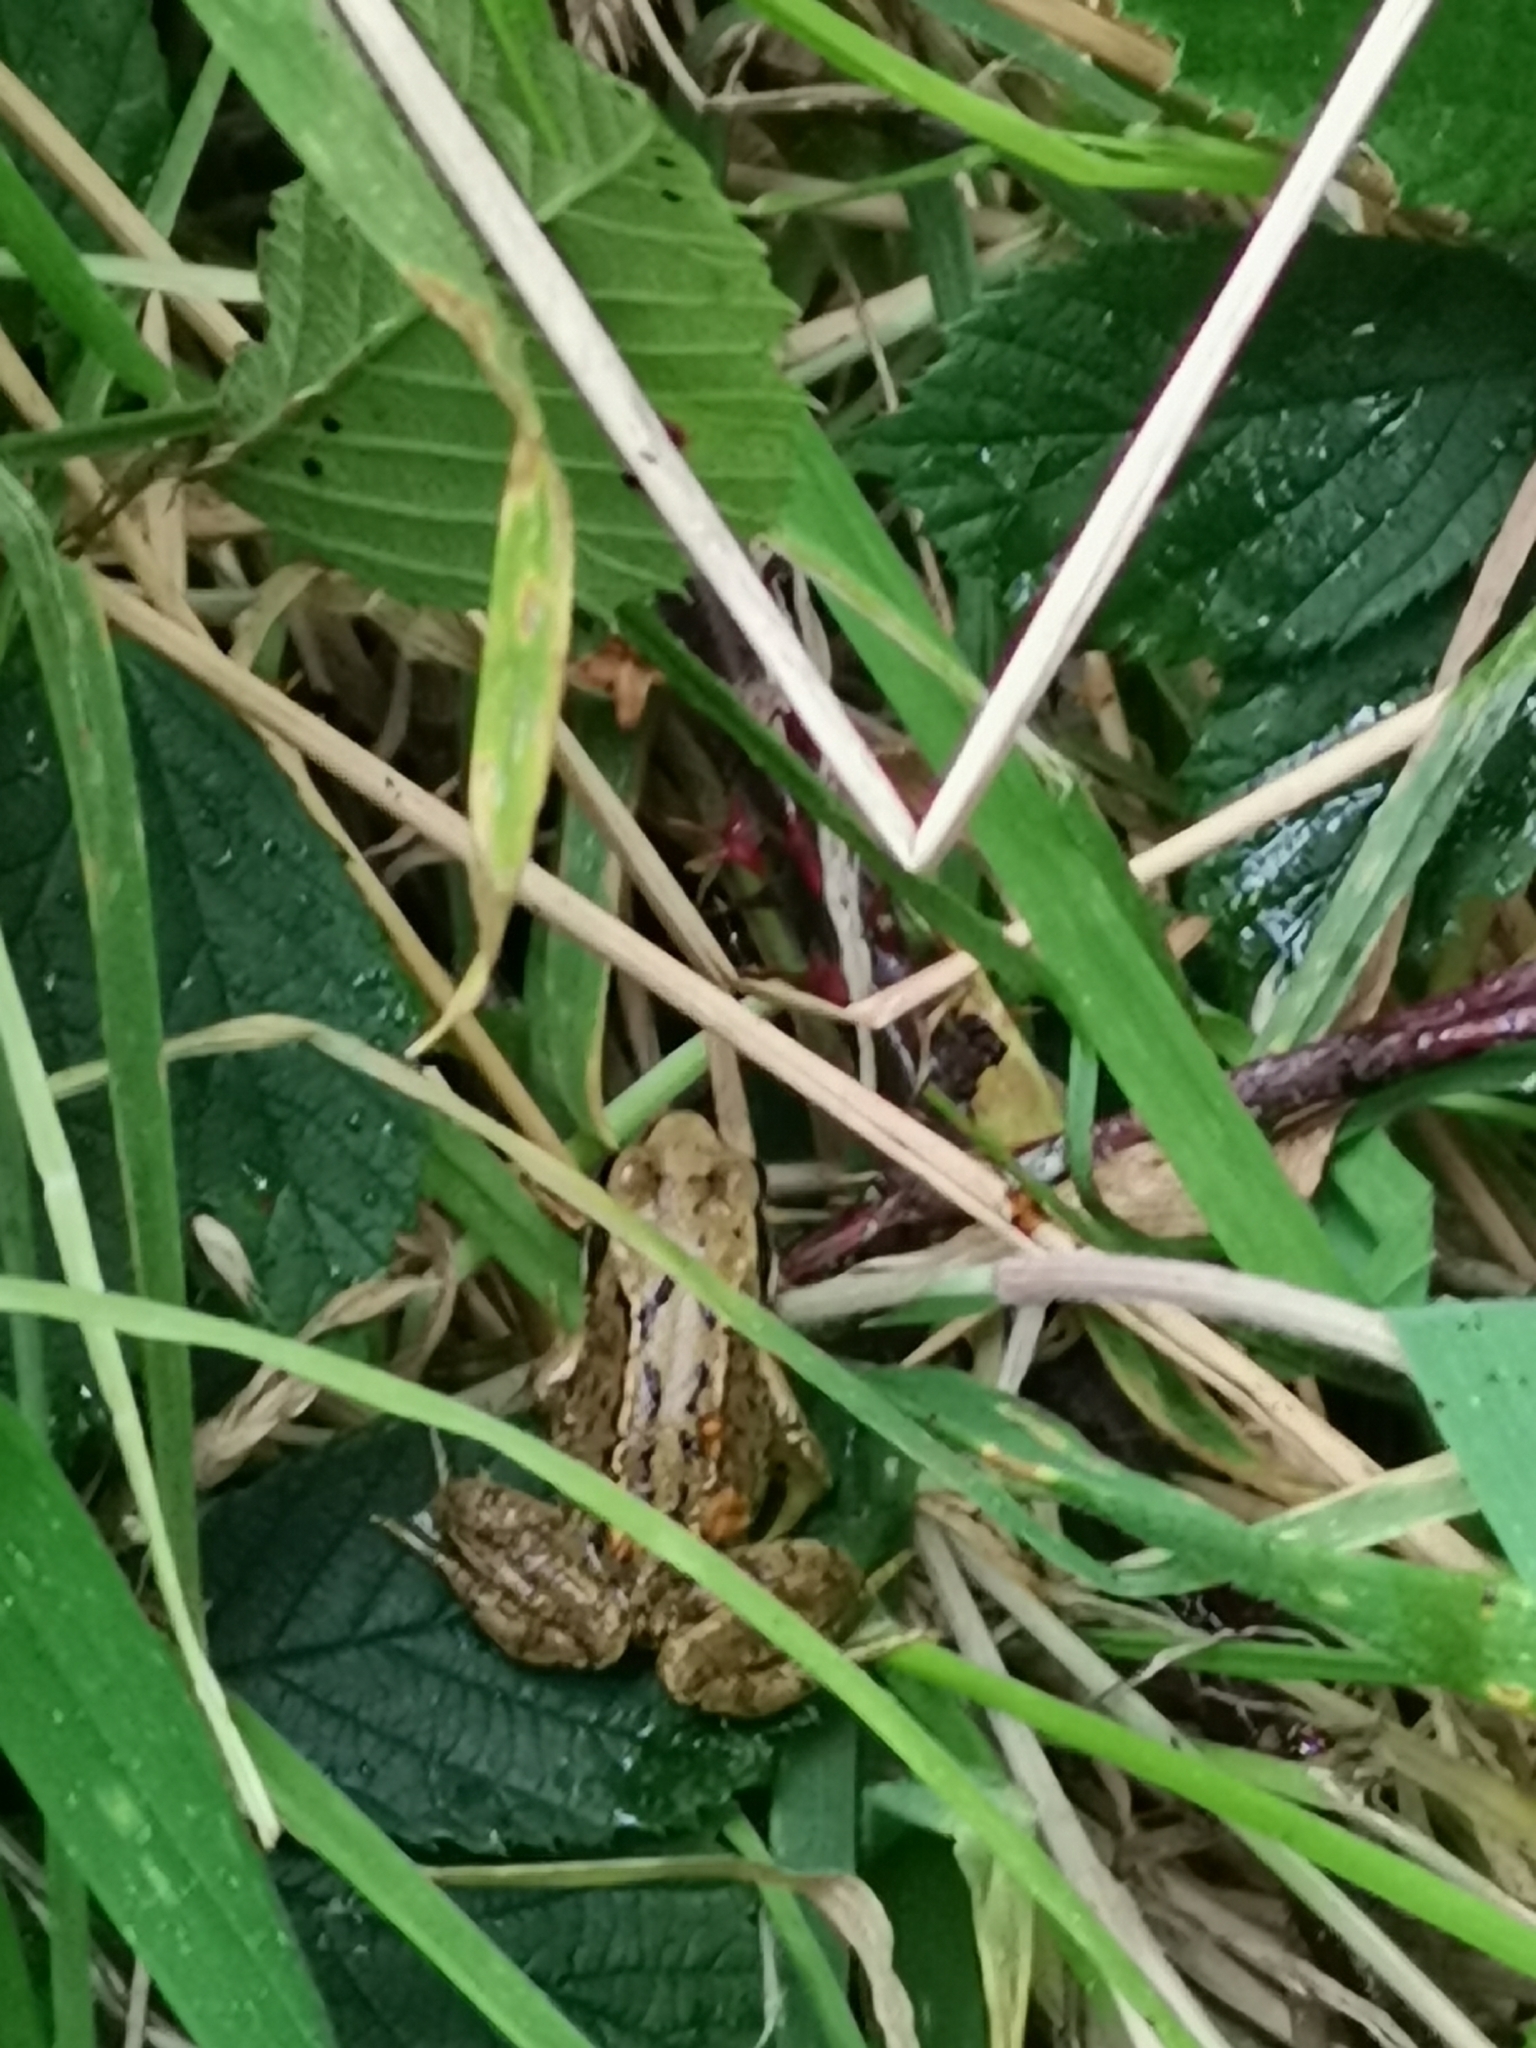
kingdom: Animalia
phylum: Chordata
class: Amphibia
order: Anura
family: Ranidae
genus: Rana
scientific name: Rana temporaria
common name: Common frog
